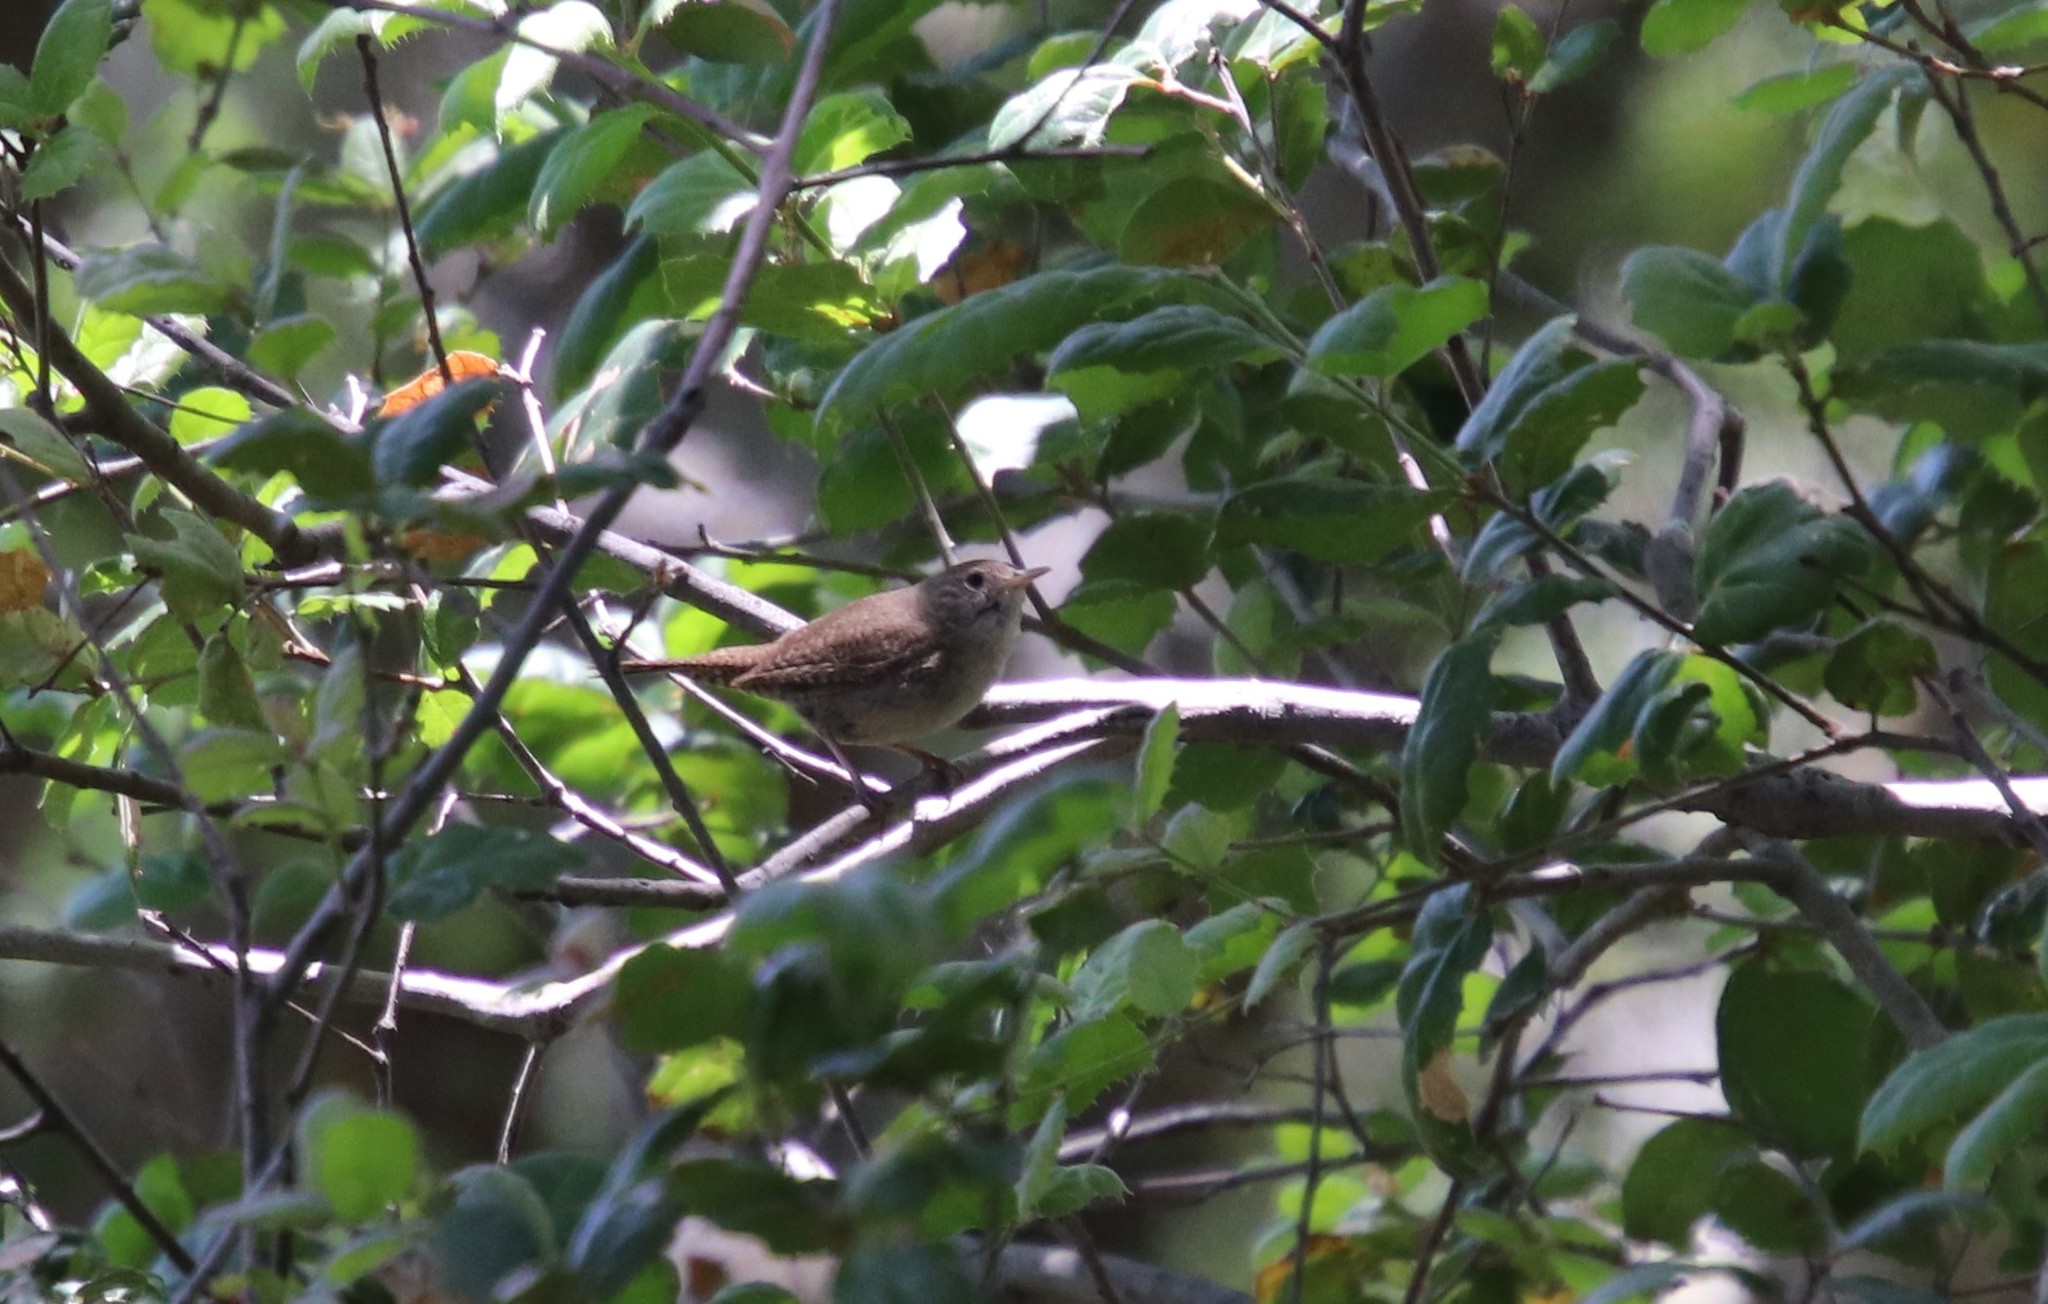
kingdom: Animalia
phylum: Chordata
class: Aves
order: Passeriformes
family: Troglodytidae
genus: Troglodytes
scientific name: Troglodytes aedon
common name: House wren
